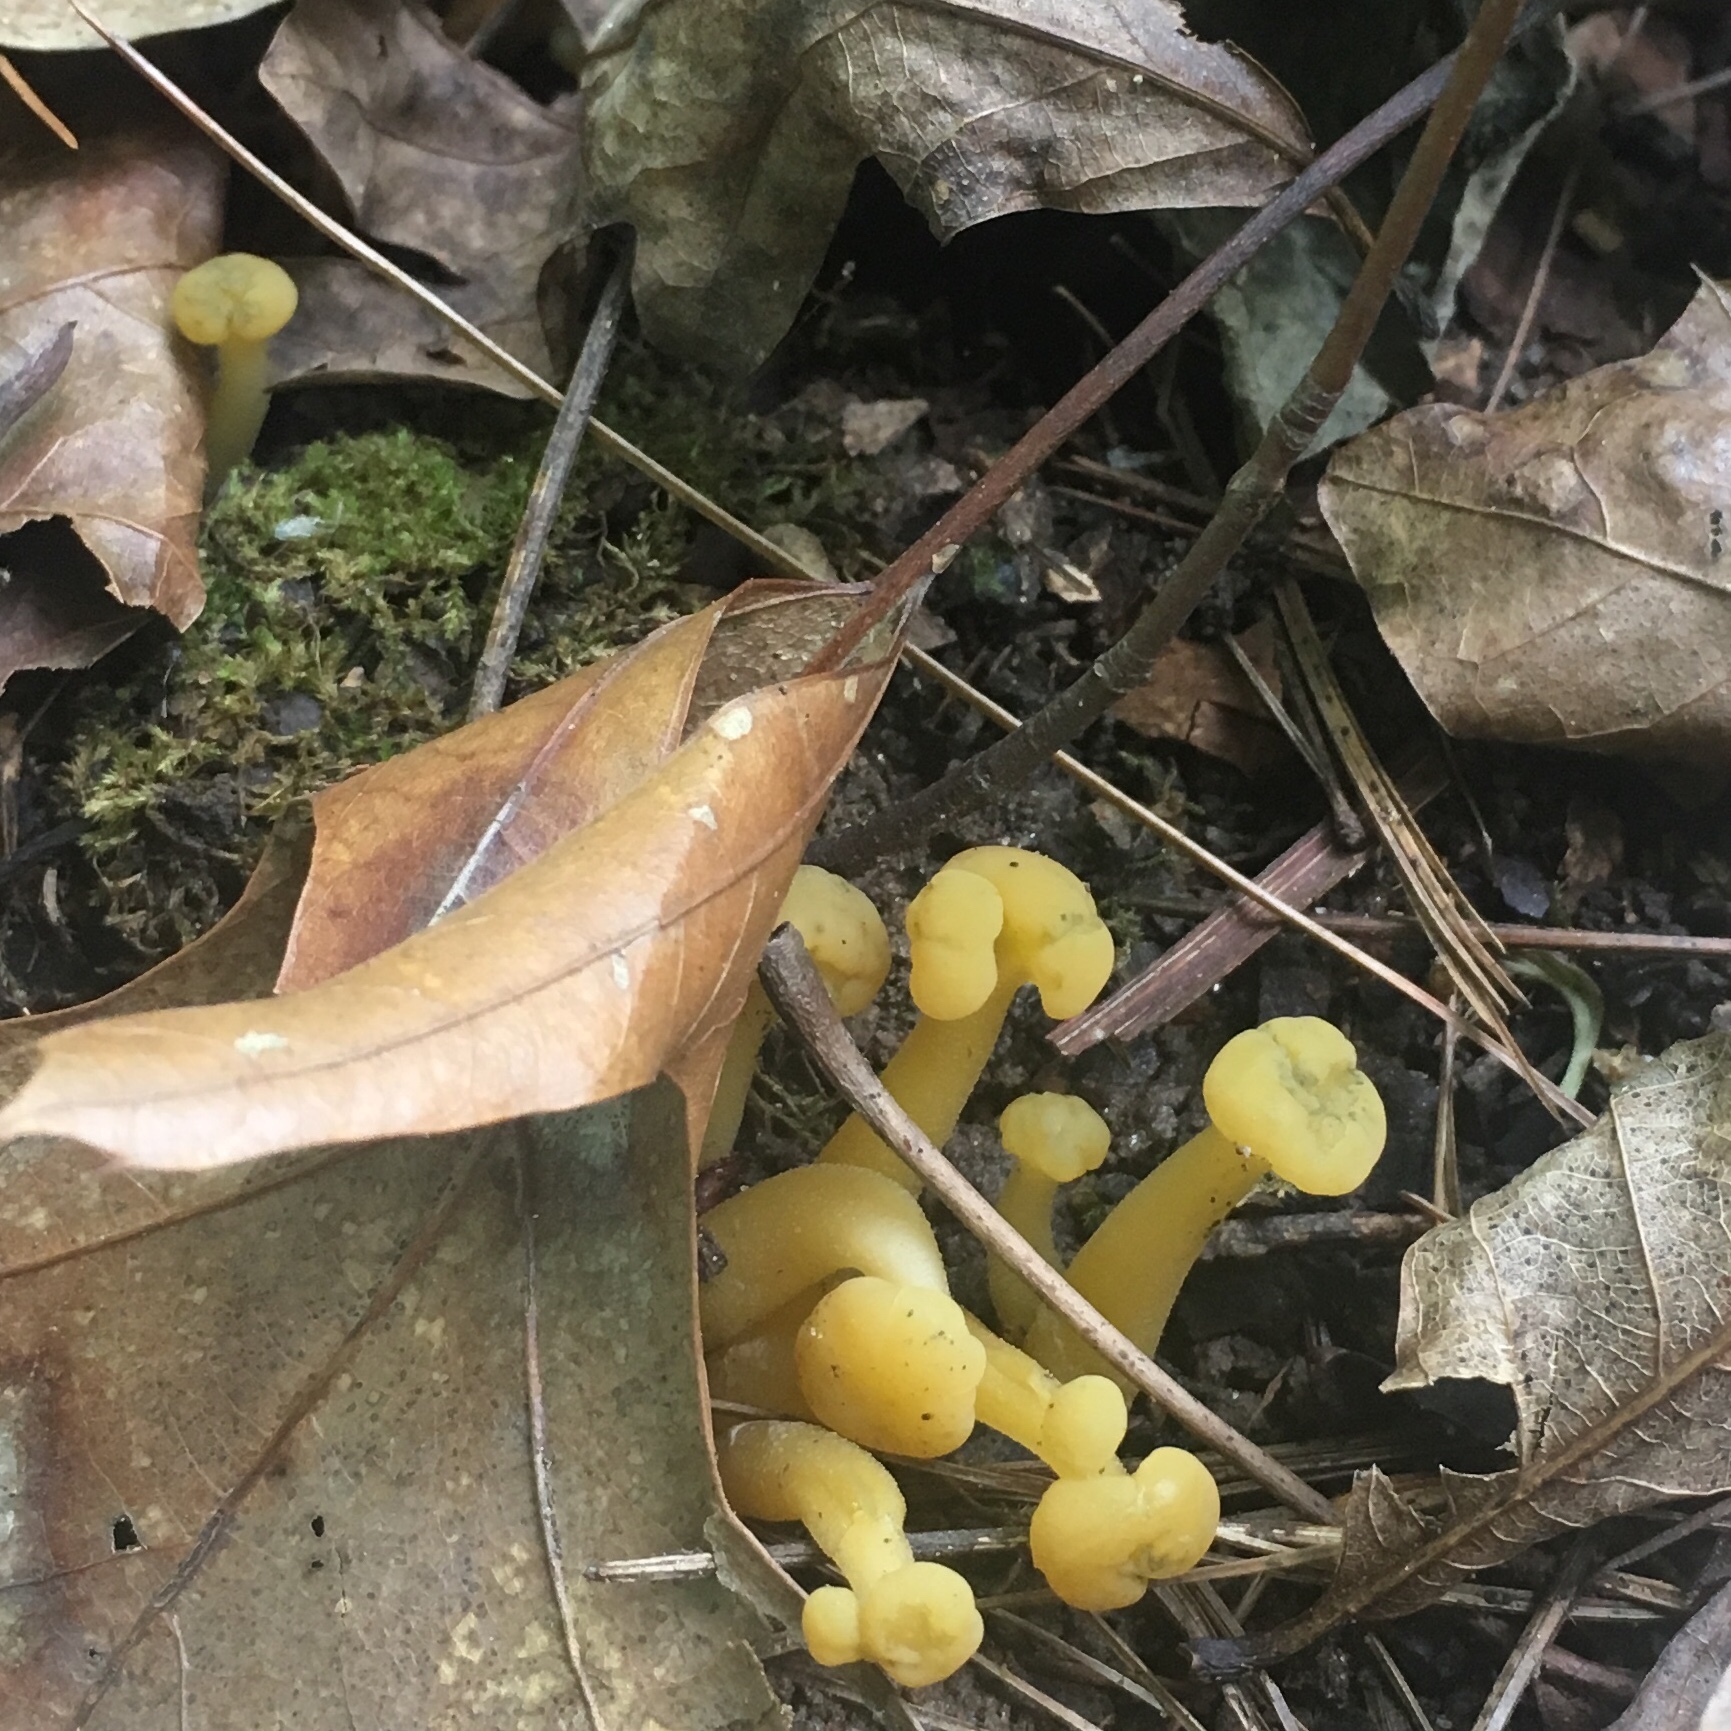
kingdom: Fungi
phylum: Ascomycota
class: Leotiomycetes
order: Leotiales
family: Leotiaceae
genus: Leotia
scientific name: Leotia lubrica
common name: Jellybaby
